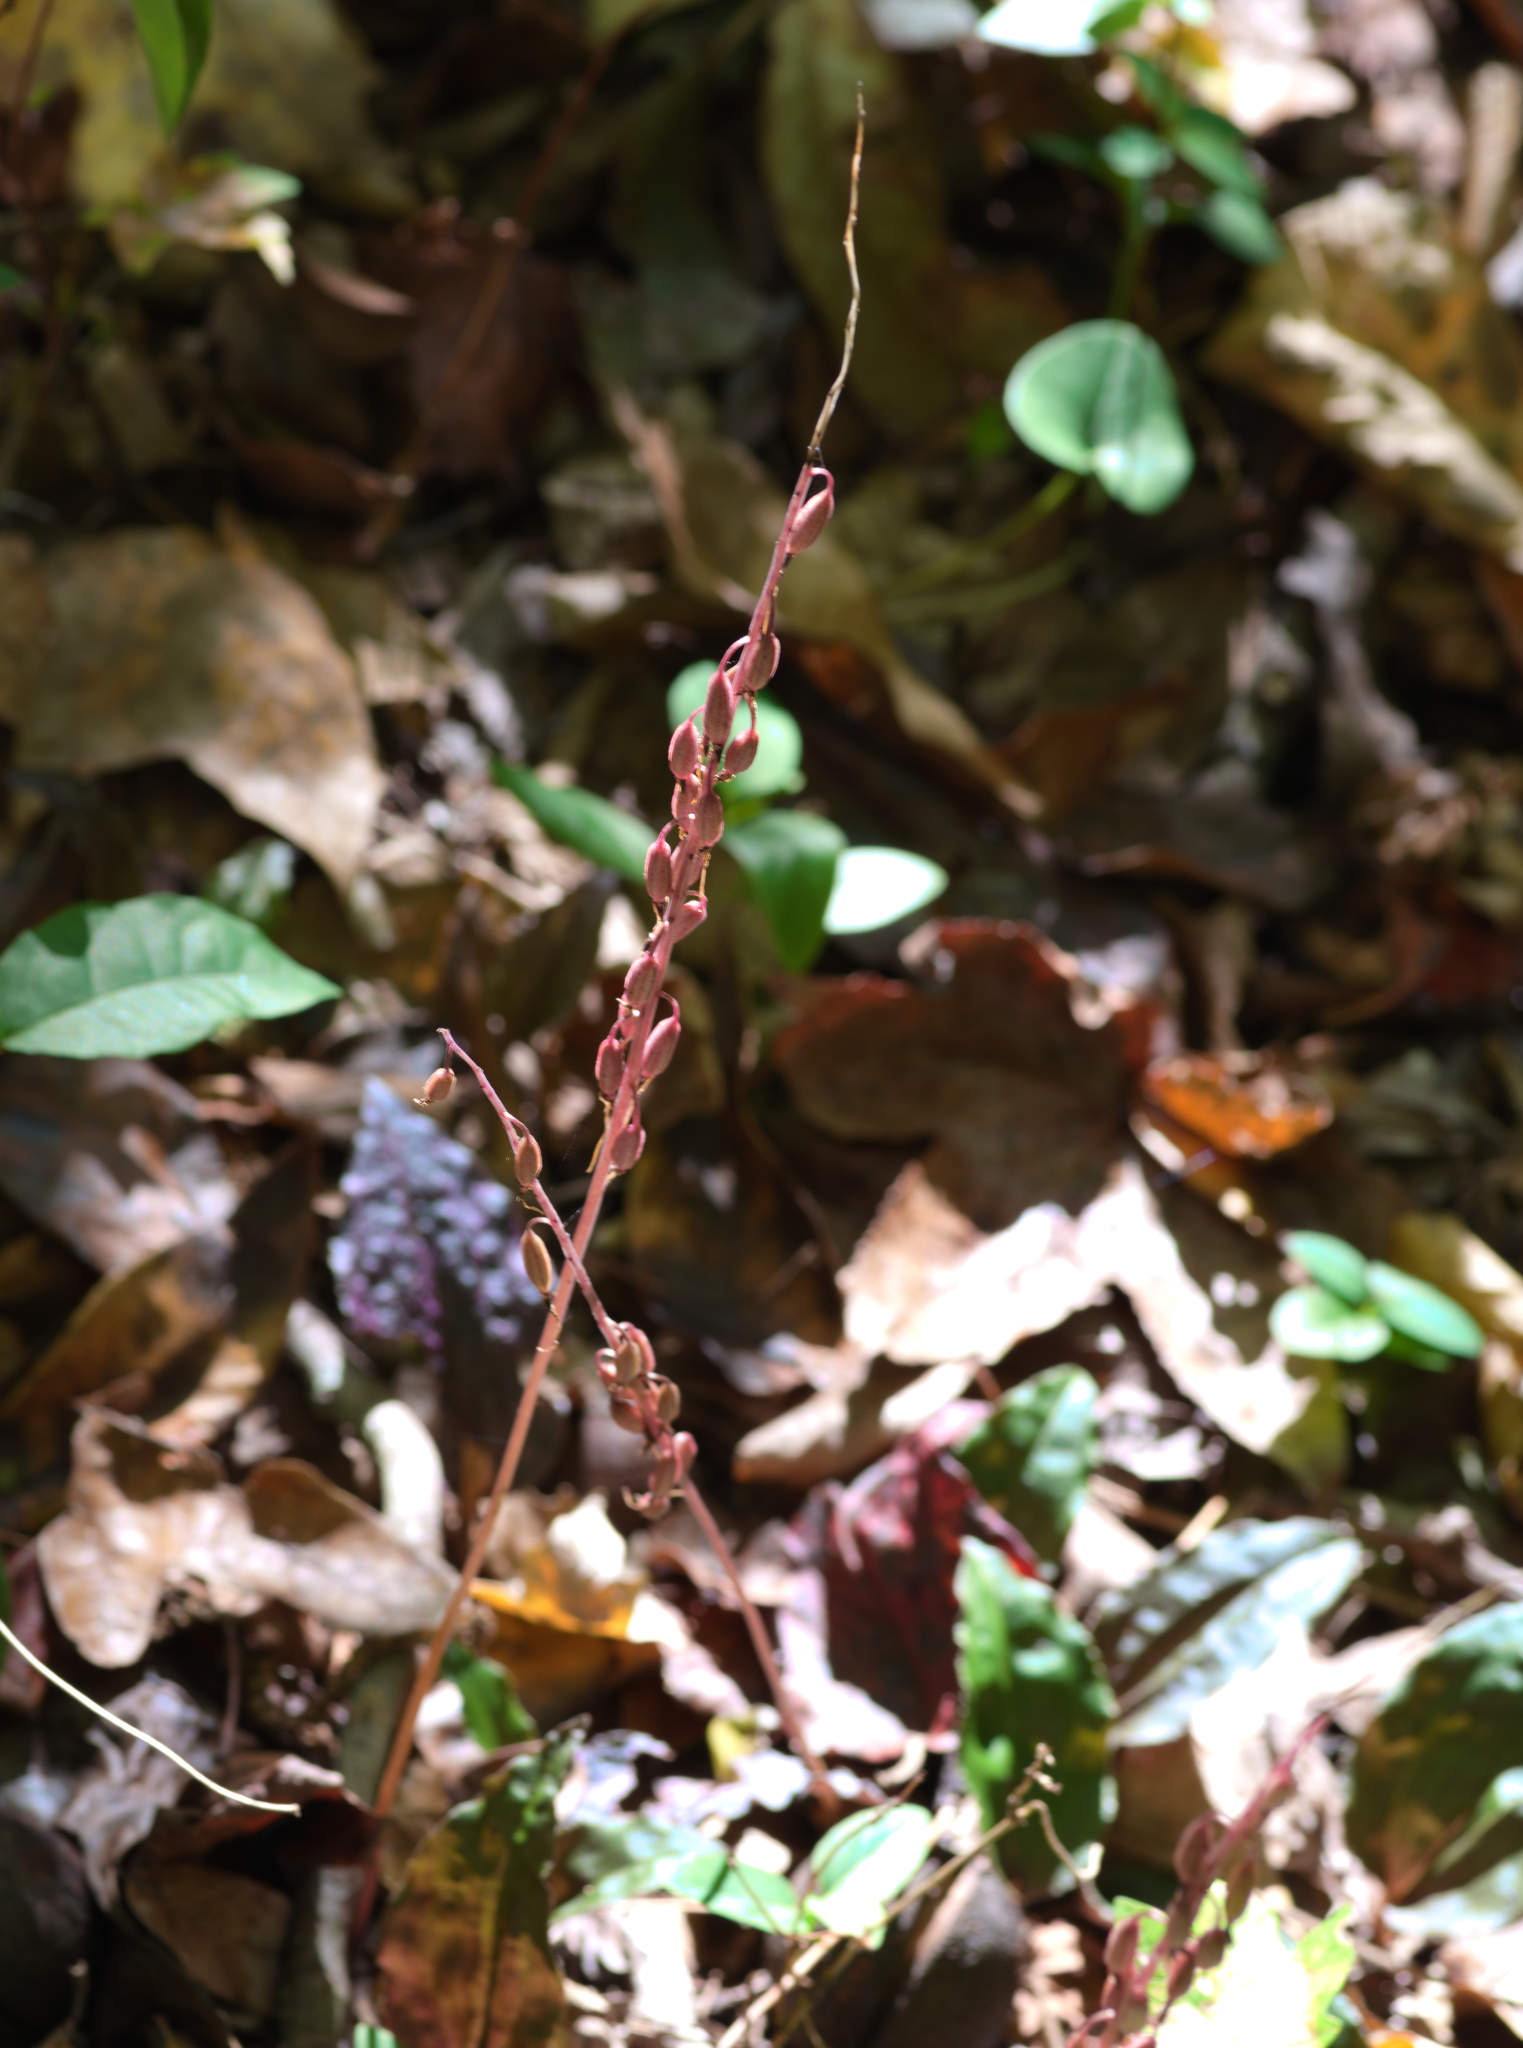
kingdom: Plantae
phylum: Tracheophyta
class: Liliopsida
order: Asparagales
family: Orchidaceae
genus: Tipularia
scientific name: Tipularia discolor
